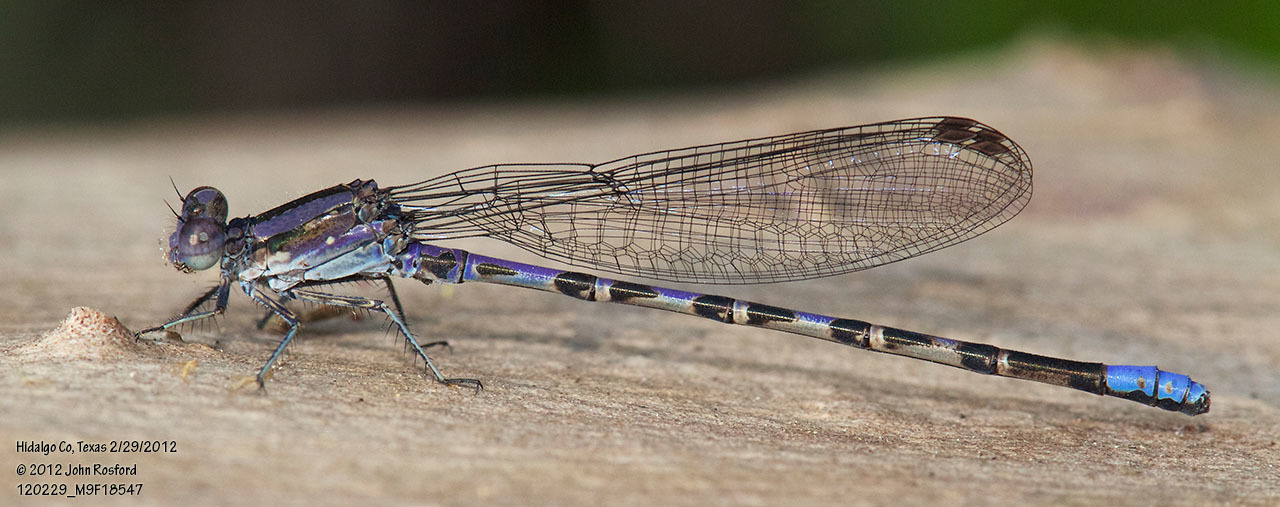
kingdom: Animalia
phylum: Arthropoda
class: Insecta
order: Odonata
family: Coenagrionidae
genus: Argia
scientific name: Argia immunda
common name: Kiowa dancer
